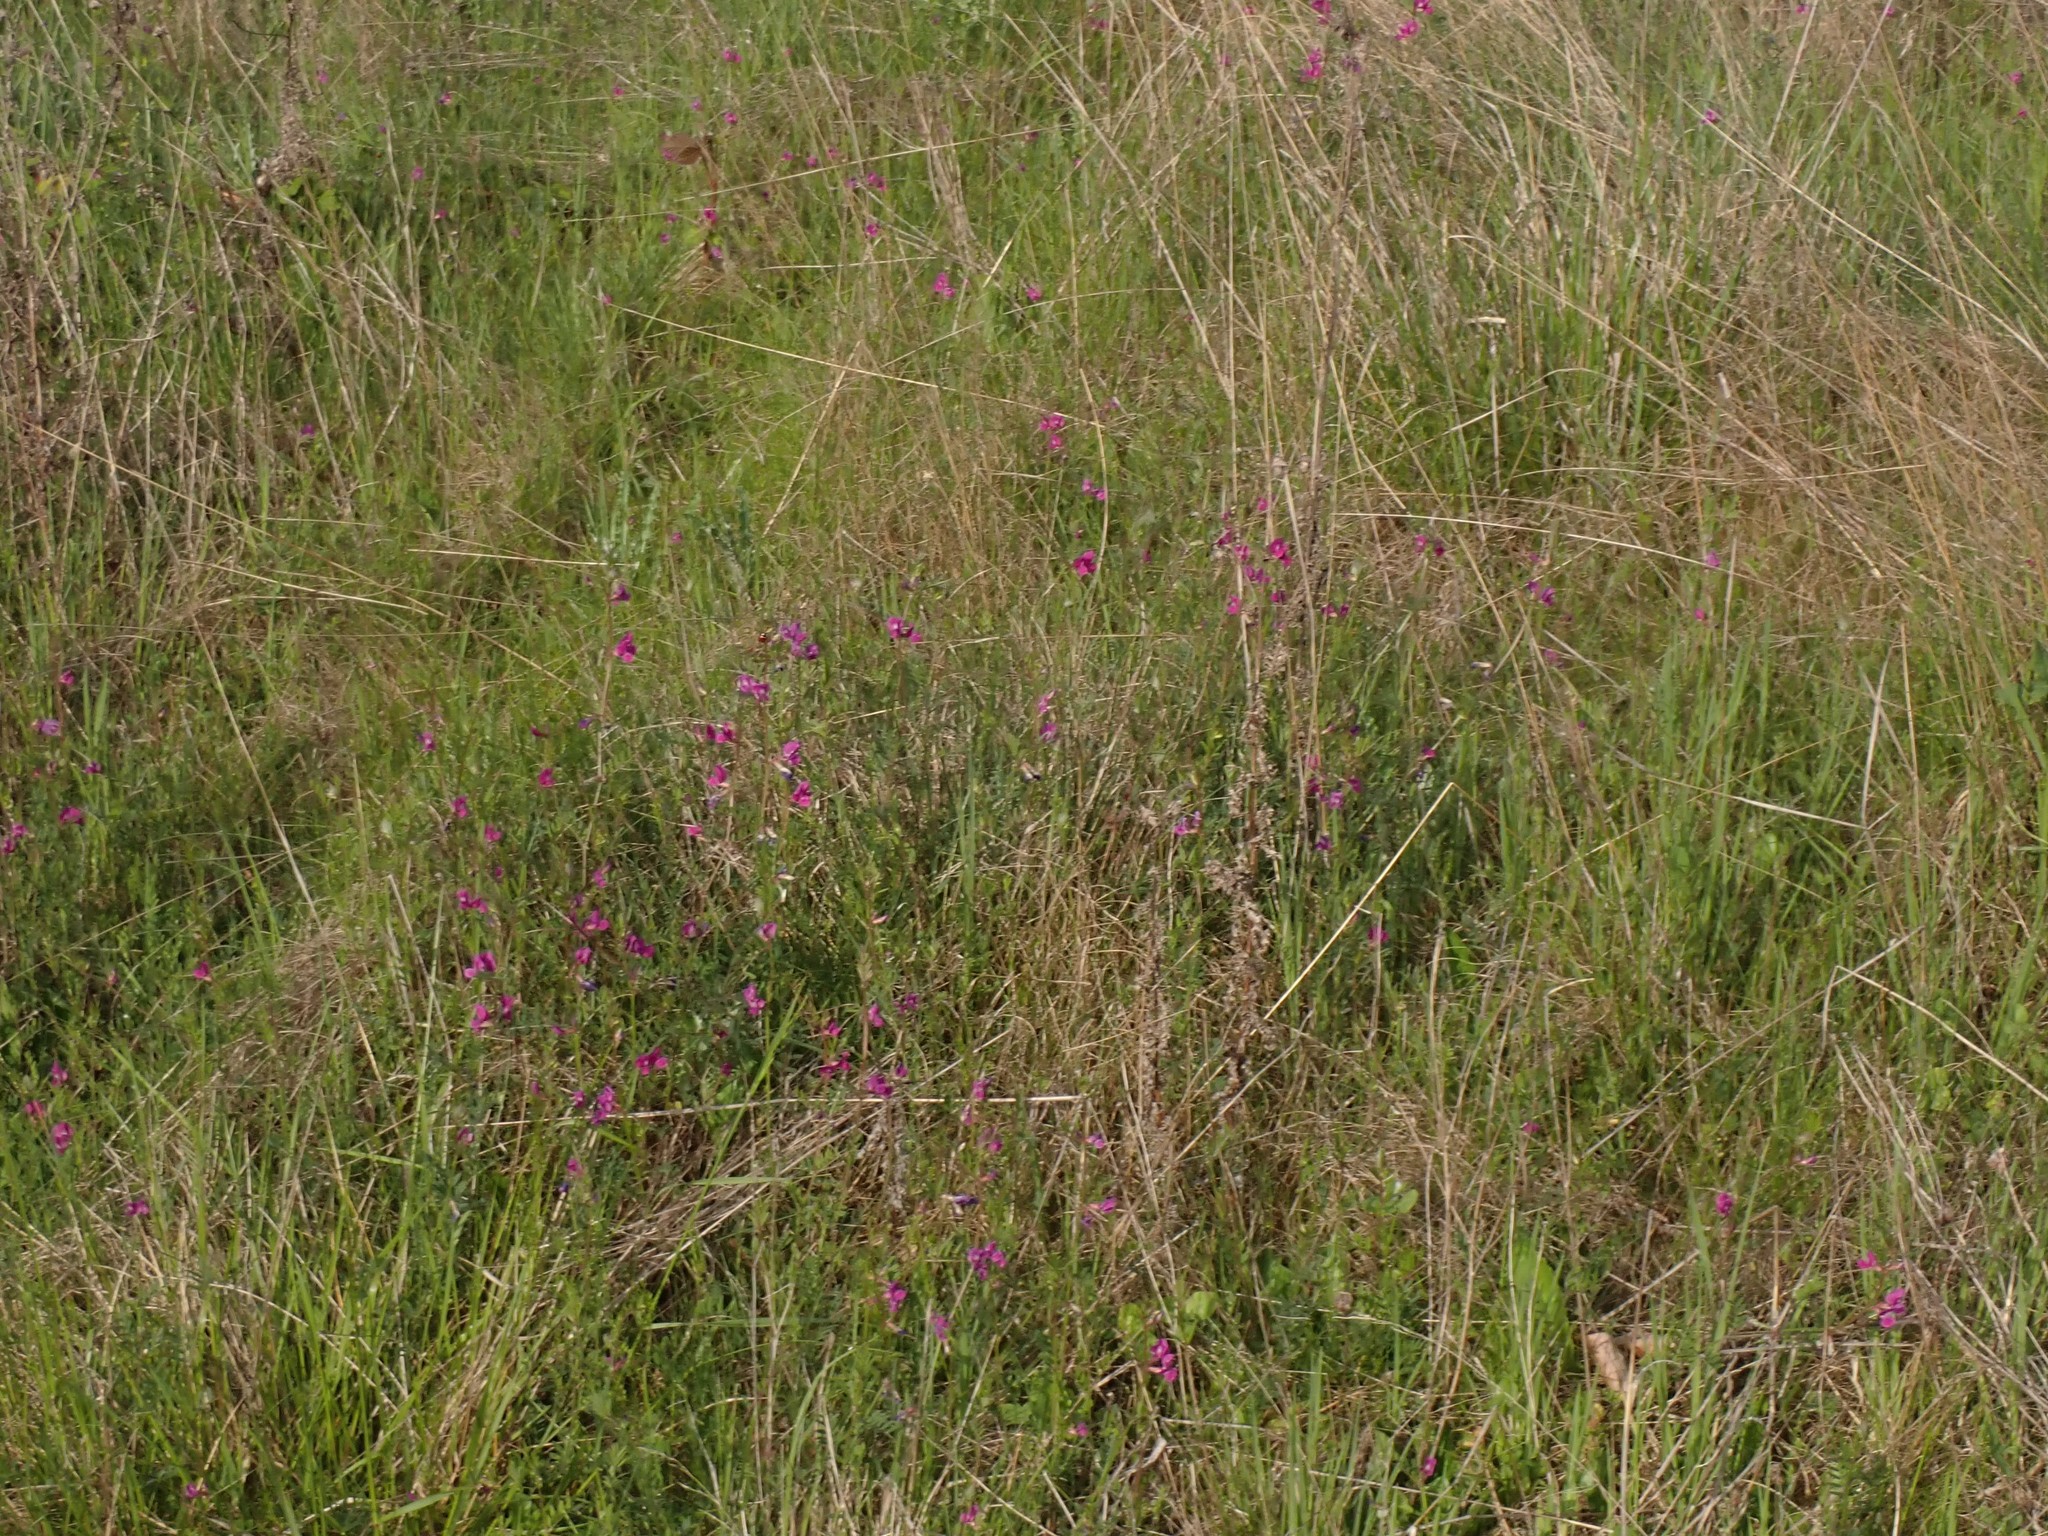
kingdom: Plantae
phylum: Tracheophyta
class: Magnoliopsida
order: Fabales
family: Fabaceae
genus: Vicia
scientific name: Vicia sativa
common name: Garden vetch
